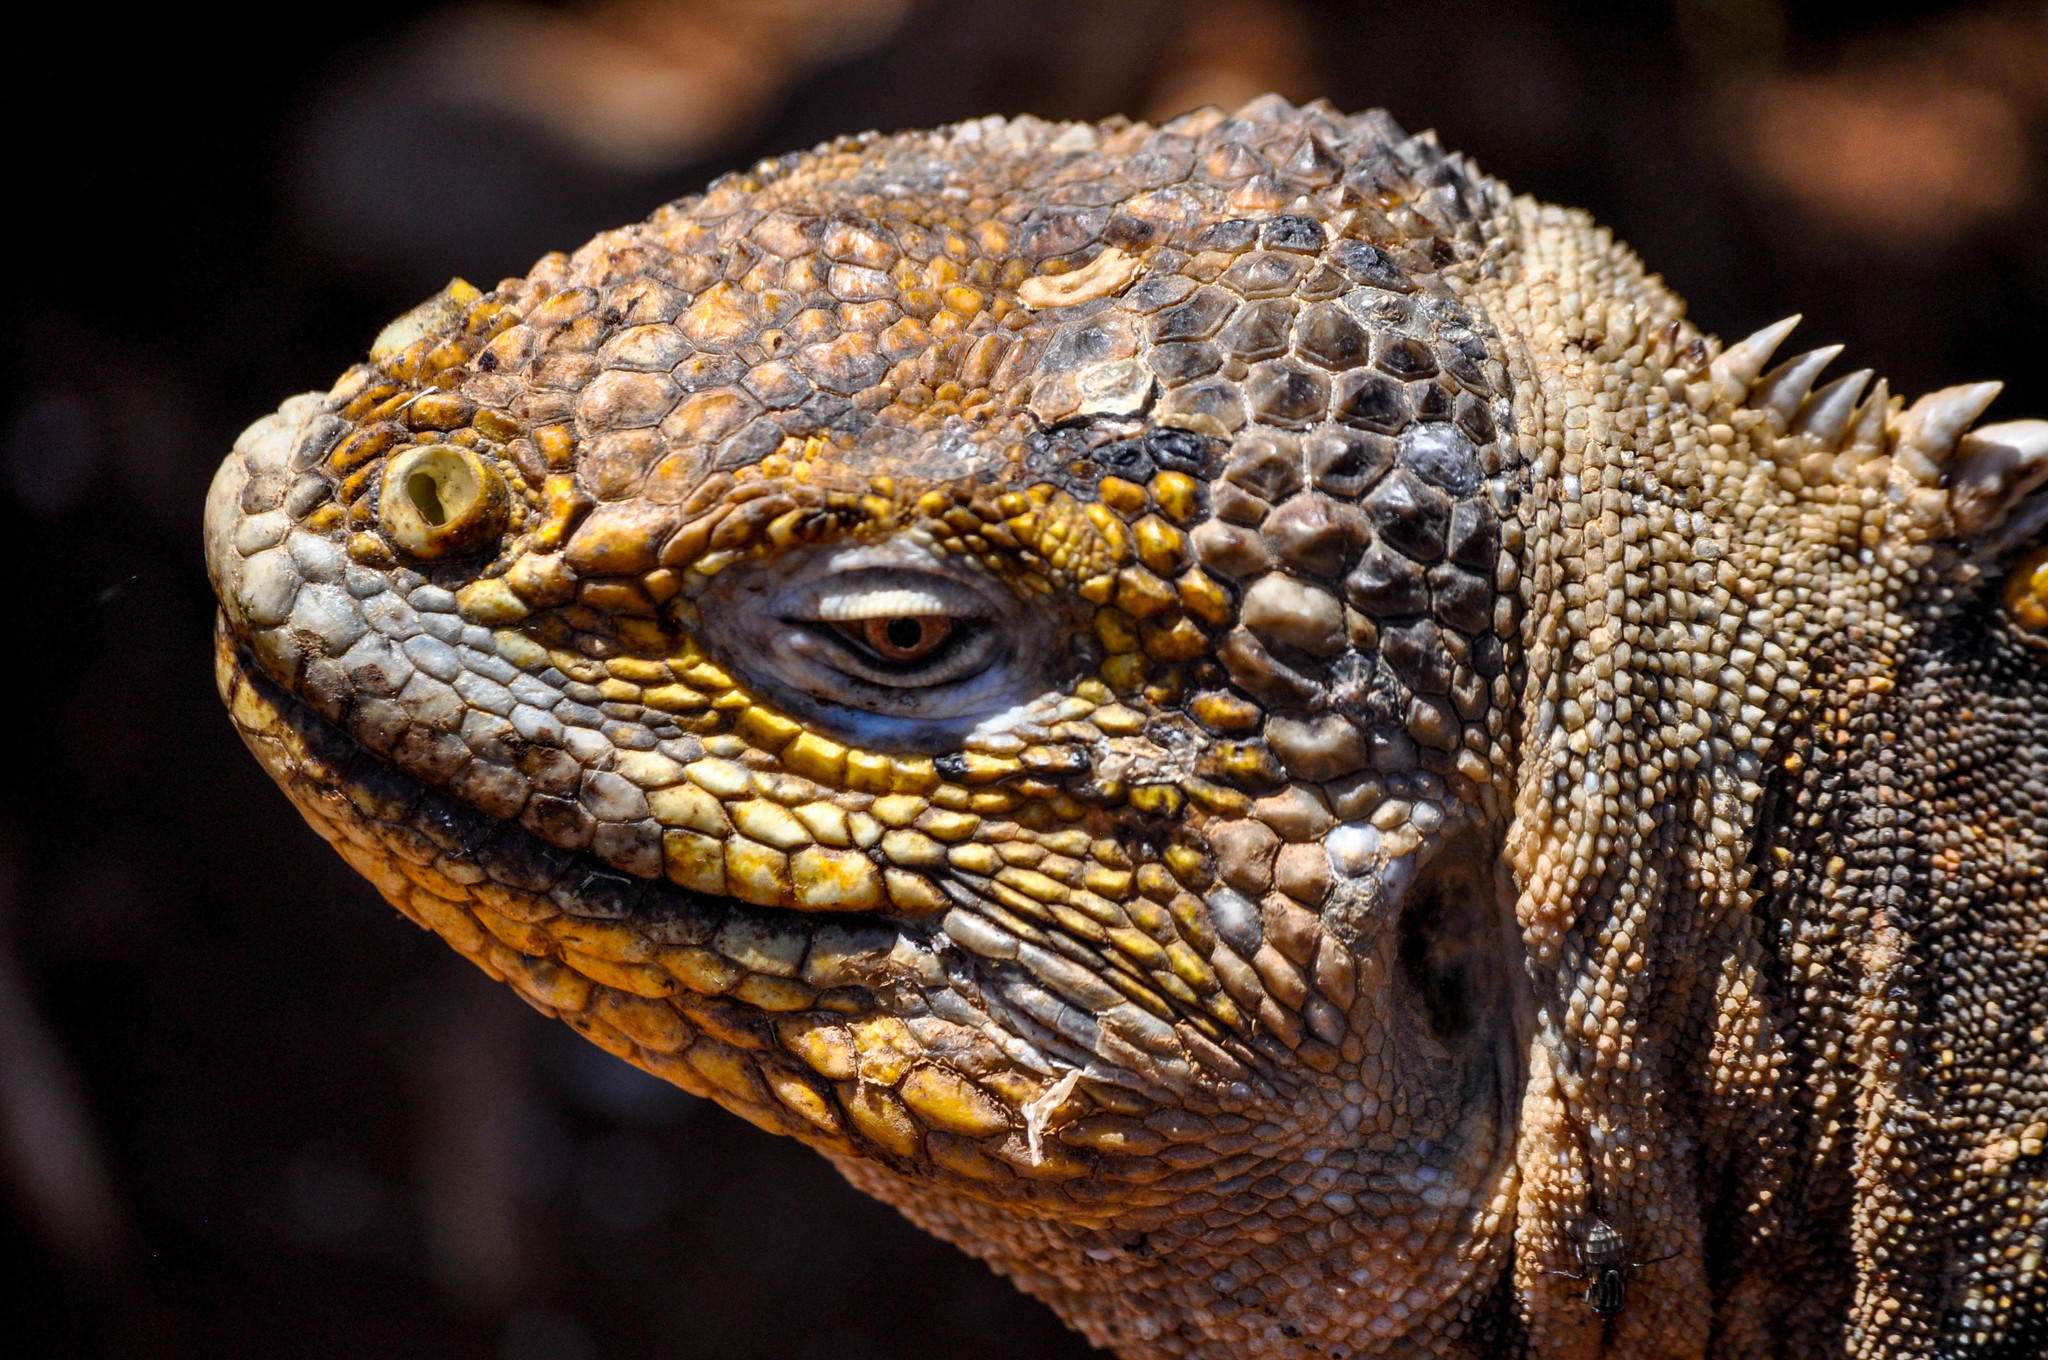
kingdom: Animalia
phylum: Chordata
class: Squamata
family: Iguanidae
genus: Conolophus
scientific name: Conolophus subcristatus
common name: Galapagos land iguana
